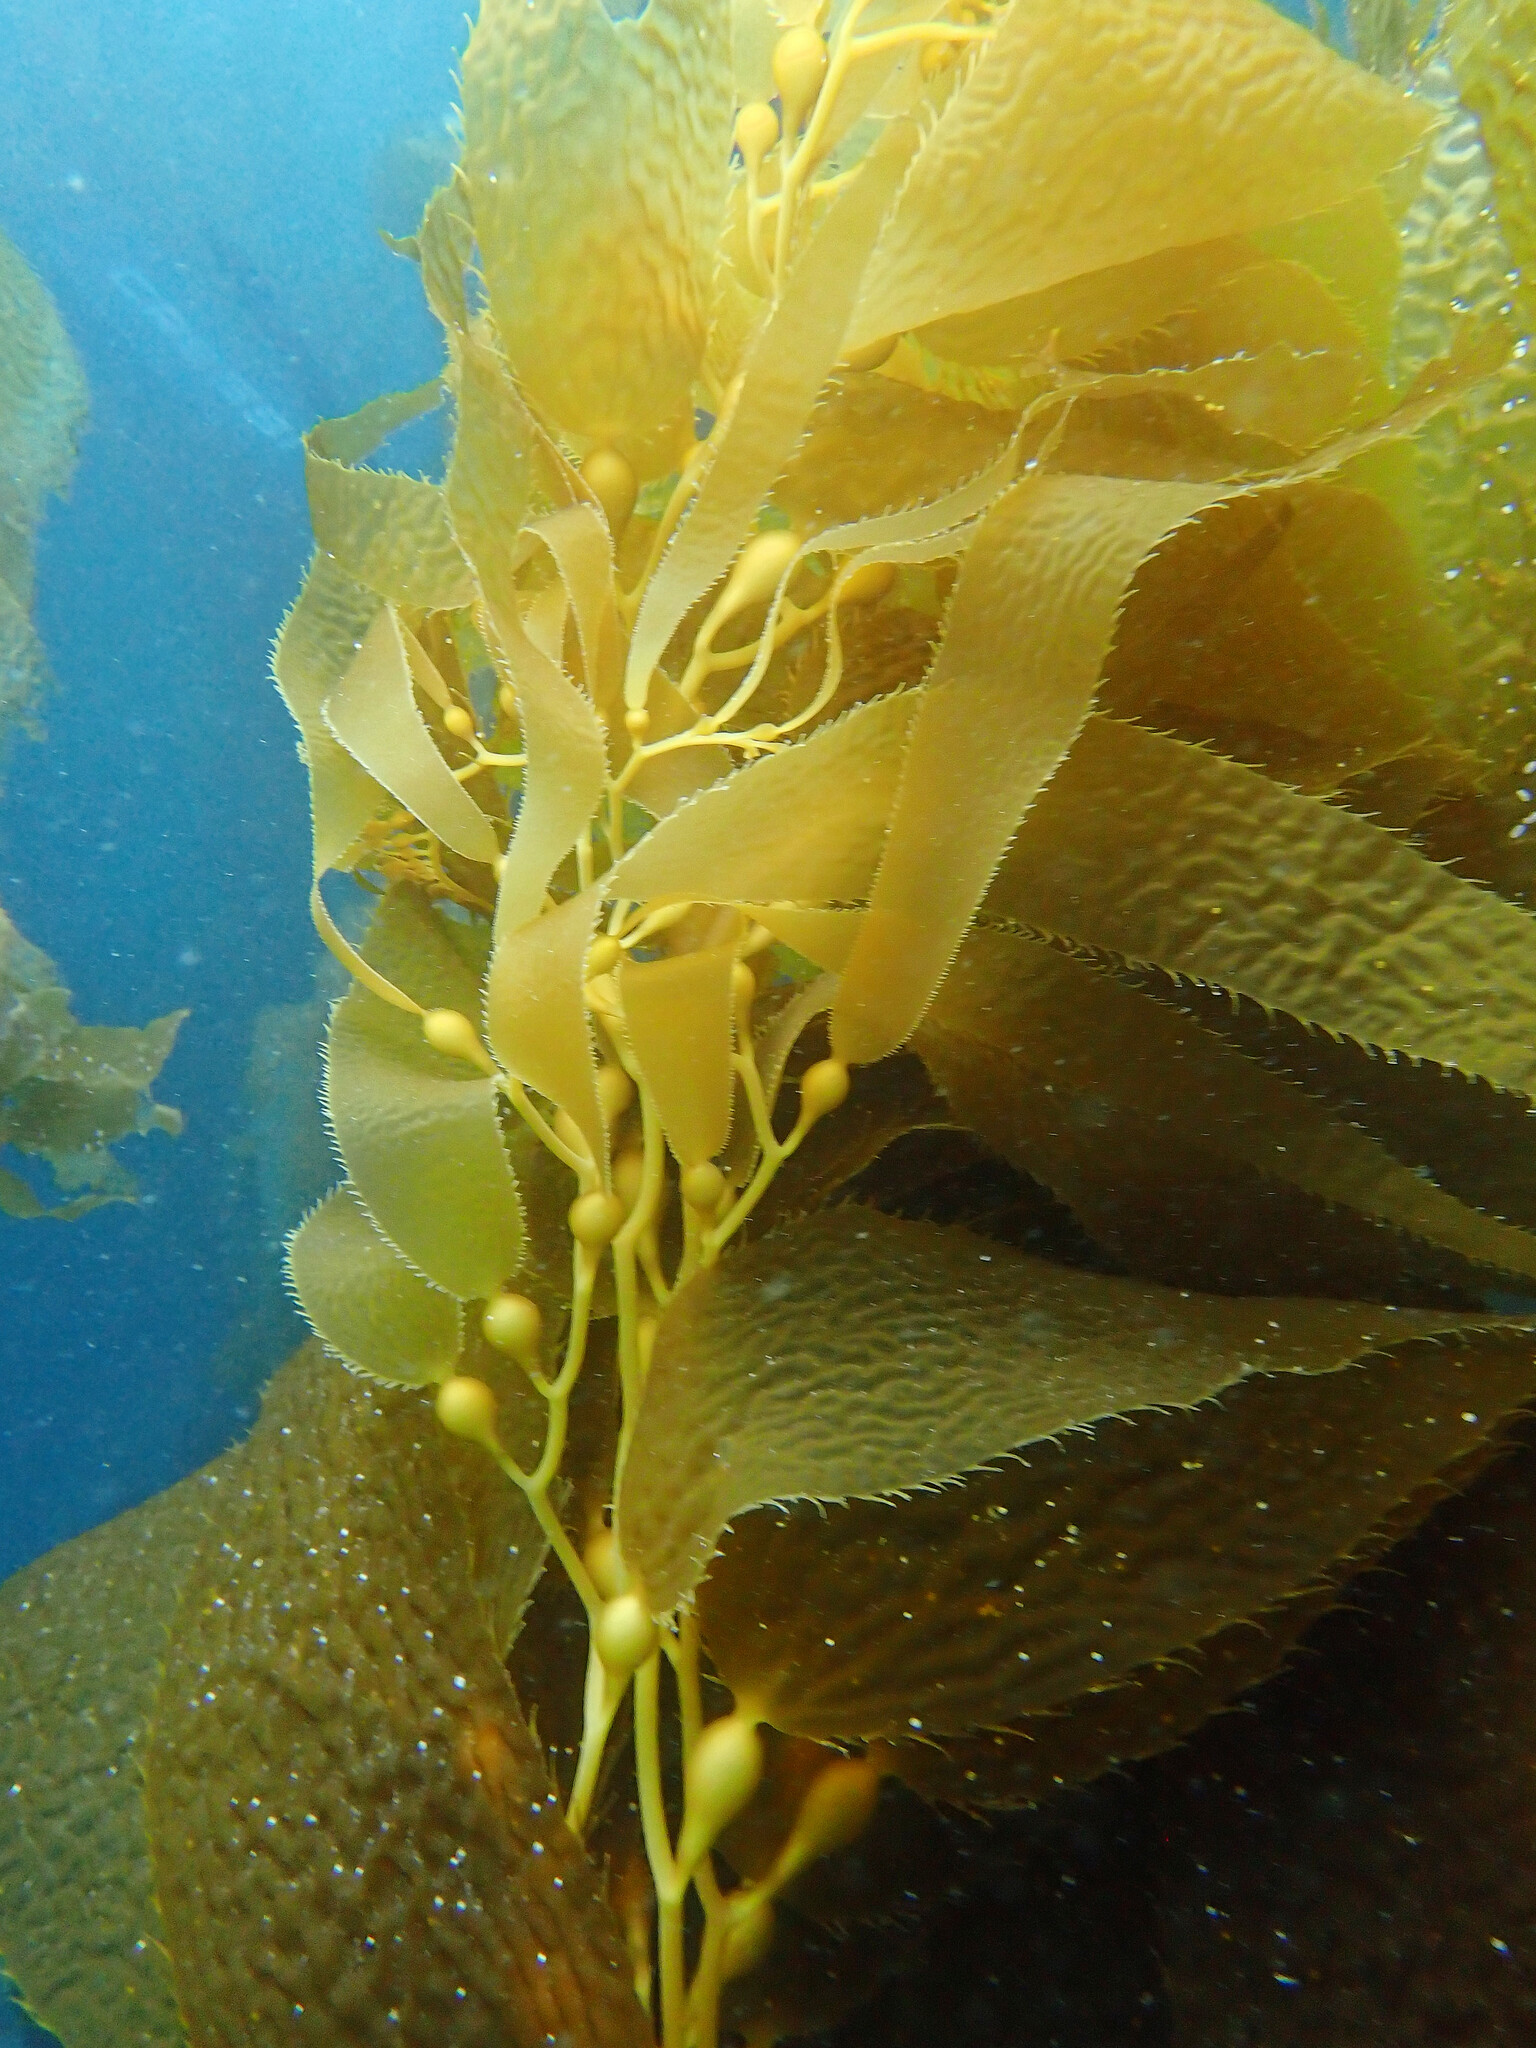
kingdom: Chromista
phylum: Ochrophyta
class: Phaeophyceae
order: Laminariales
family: Laminariaceae
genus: Macrocystis
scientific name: Macrocystis pyrifera
